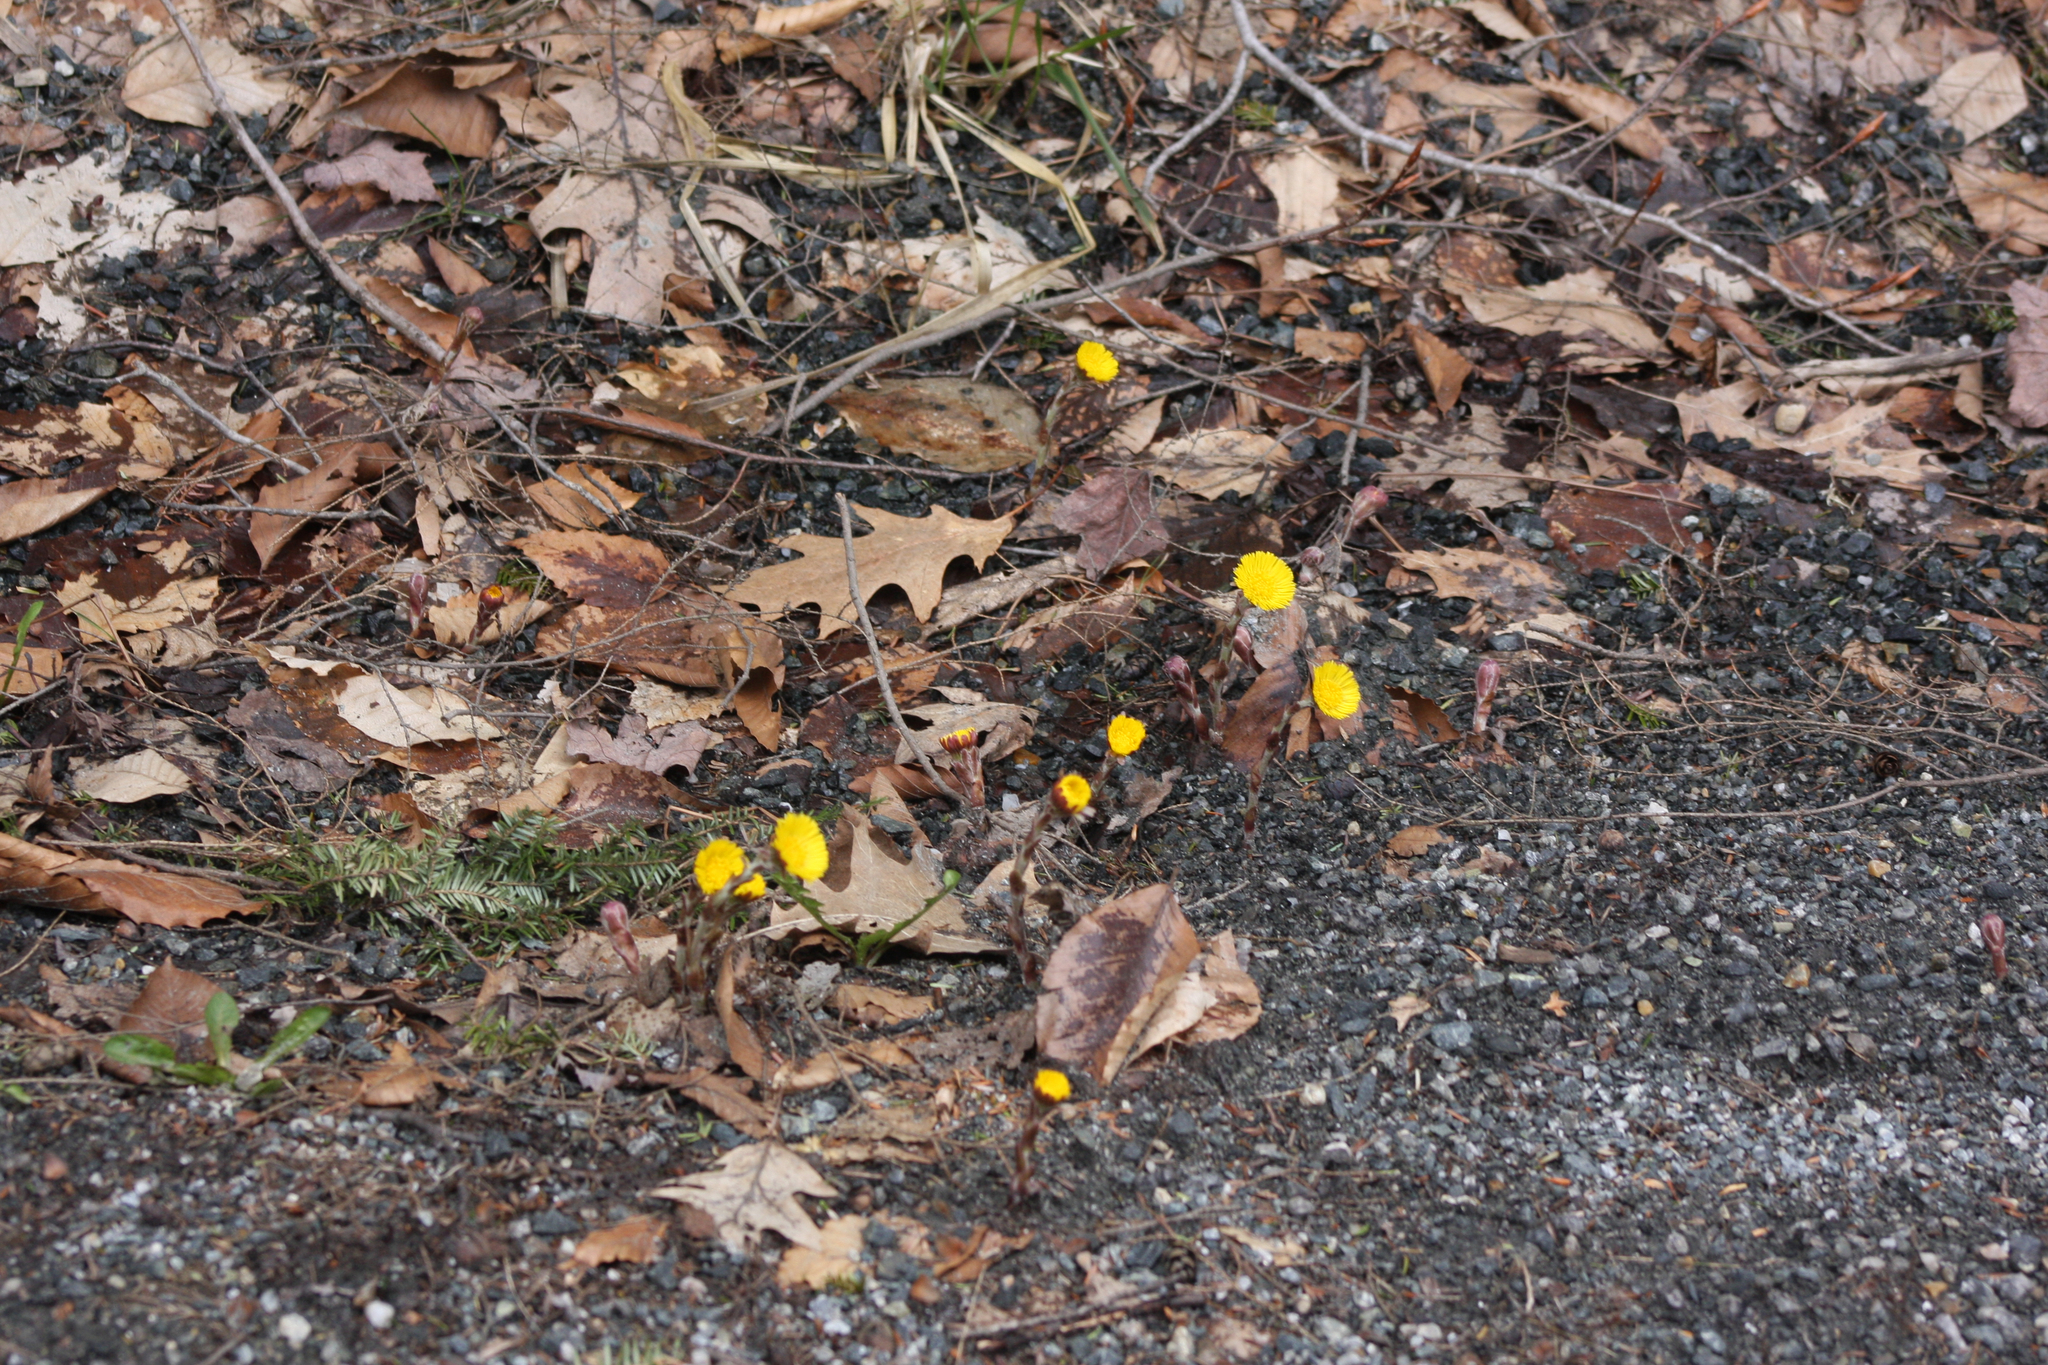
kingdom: Plantae
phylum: Tracheophyta
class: Magnoliopsida
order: Asterales
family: Asteraceae
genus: Tussilago
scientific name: Tussilago farfara
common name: Coltsfoot
